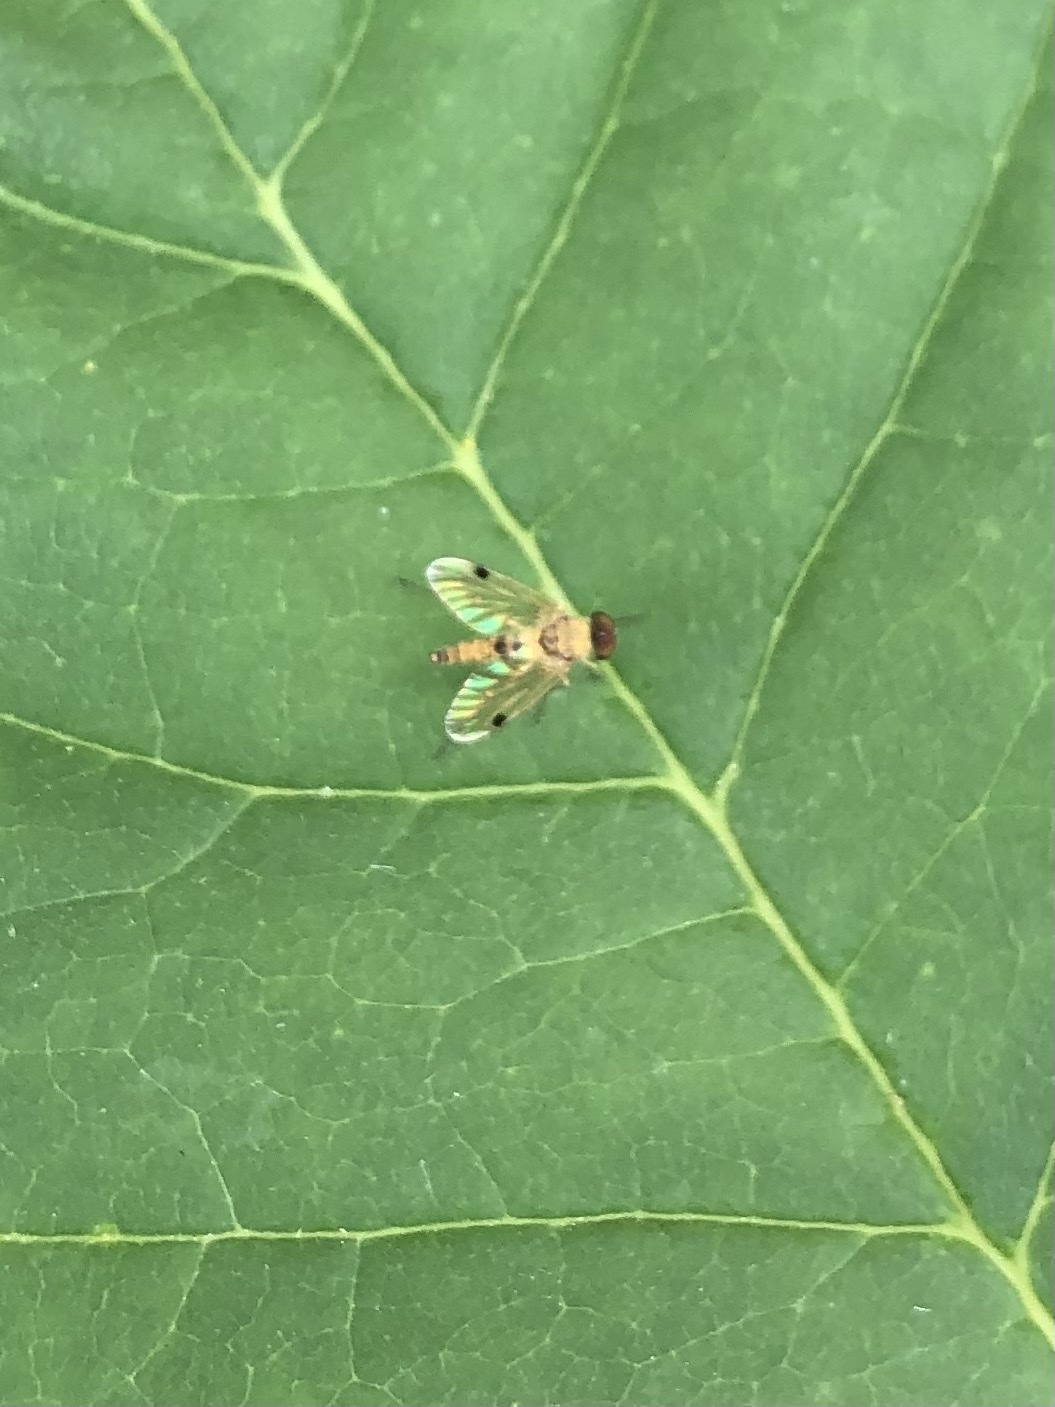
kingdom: Animalia
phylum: Arthropoda
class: Insecta
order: Diptera
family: Rhagionidae
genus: Chrysopilus
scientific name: Chrysopilus modestus
